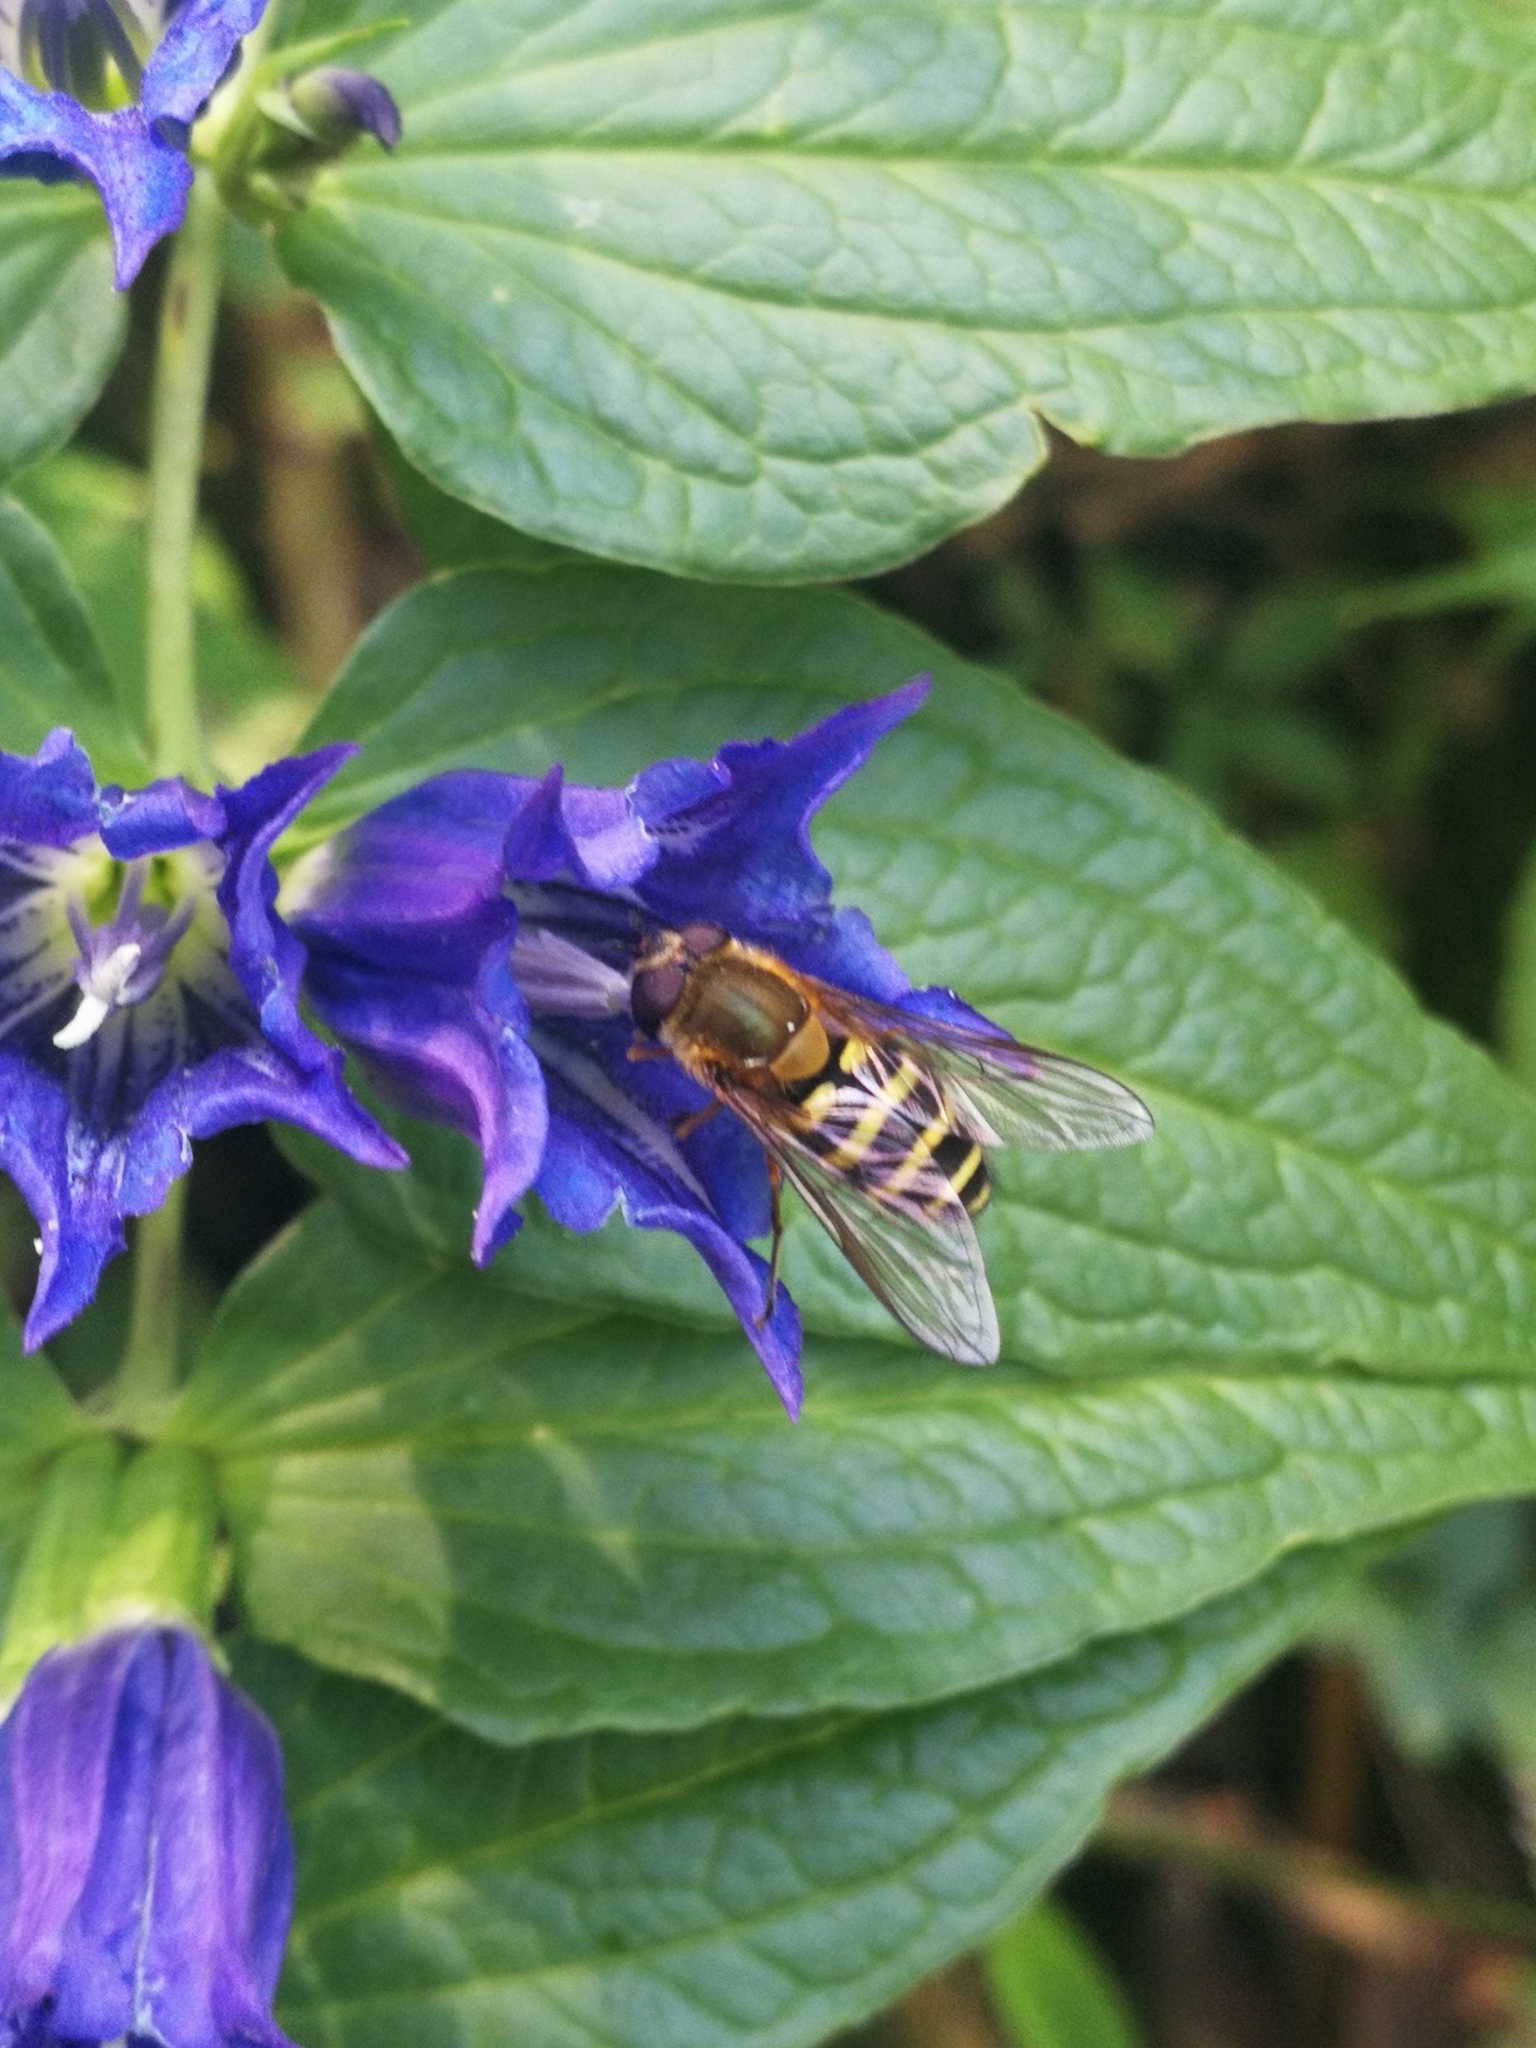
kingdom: Animalia
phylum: Arthropoda
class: Insecta
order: Diptera
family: Syrphidae
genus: Syrphus
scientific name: Syrphus
